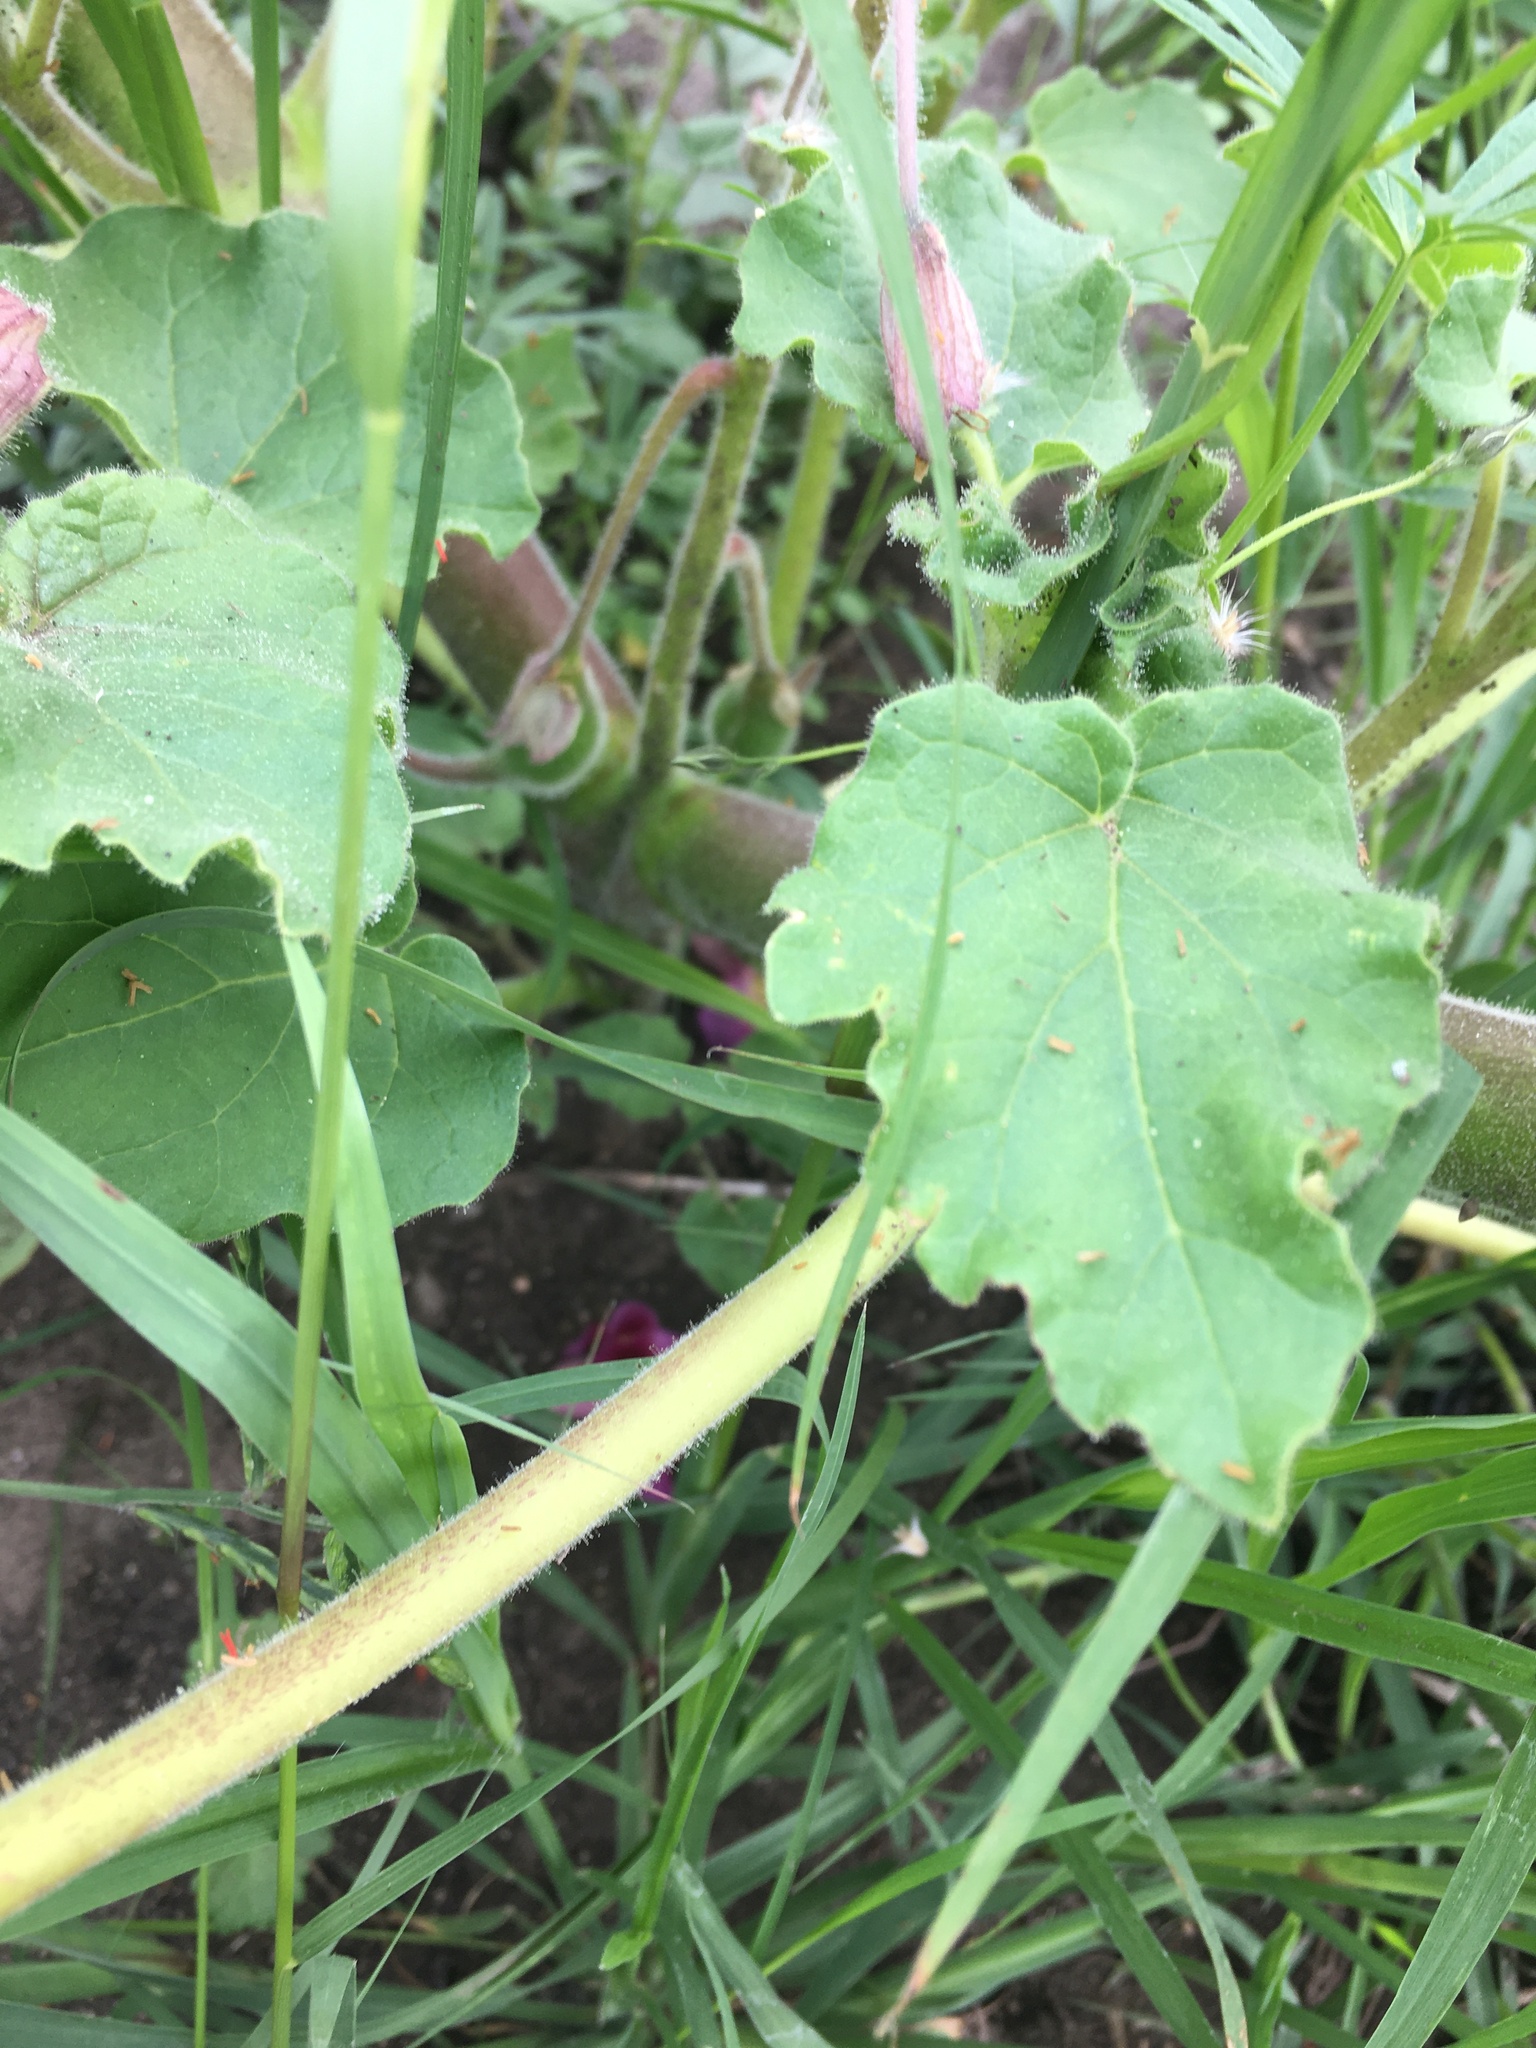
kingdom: Plantae
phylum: Tracheophyta
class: Magnoliopsida
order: Lamiales
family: Martyniaceae
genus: Proboscidea
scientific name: Proboscidea louisianica
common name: Elephant tusks
